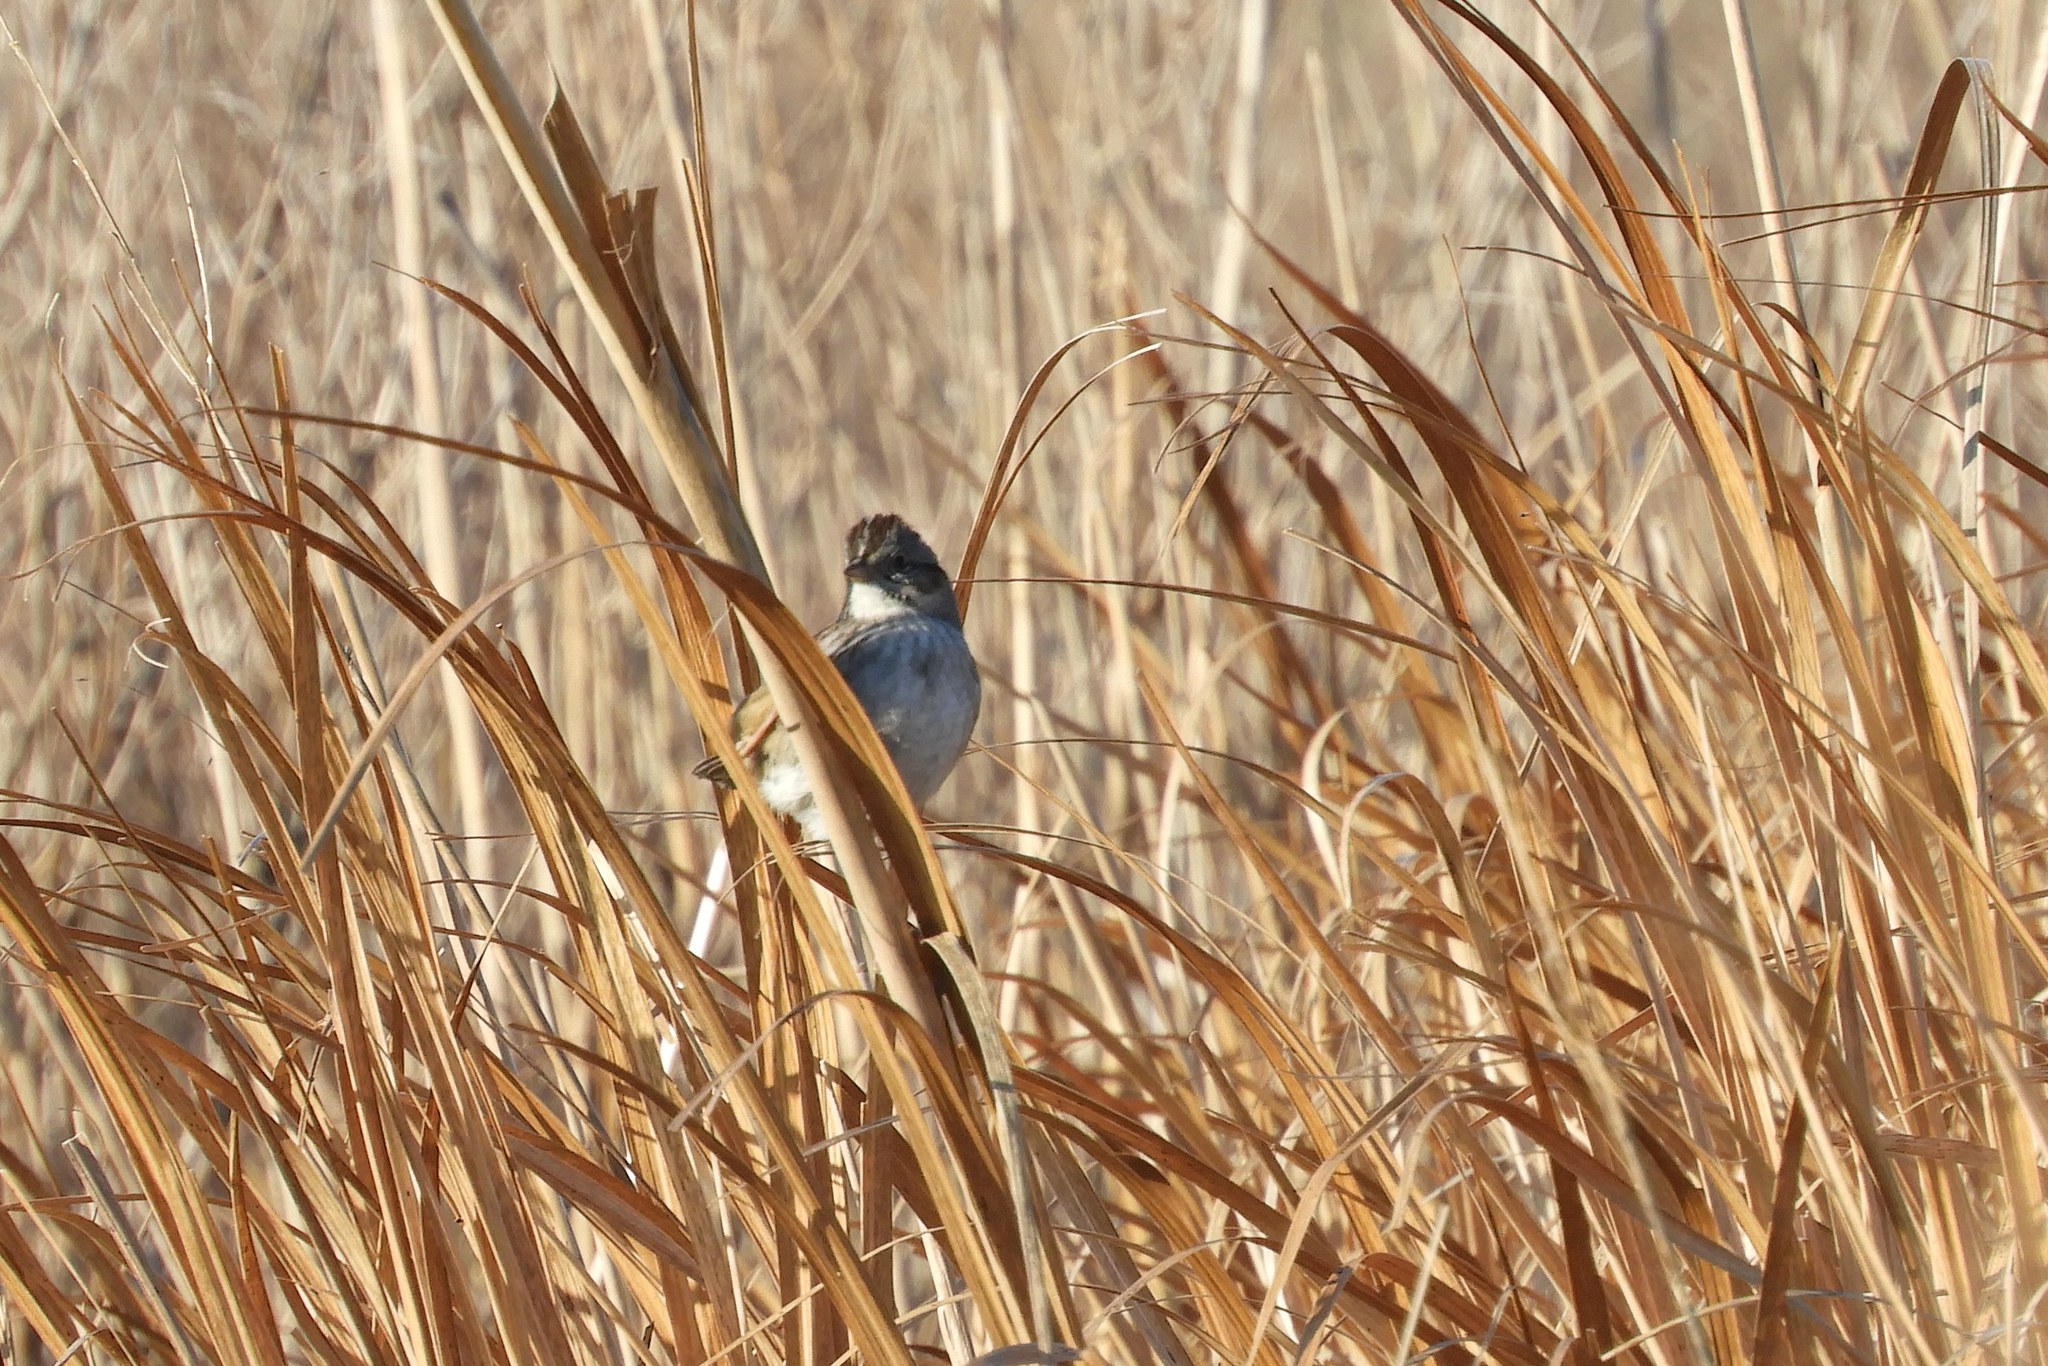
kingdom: Animalia
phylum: Chordata
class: Aves
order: Passeriformes
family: Passerellidae
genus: Melospiza
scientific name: Melospiza georgiana
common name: Swamp sparrow
